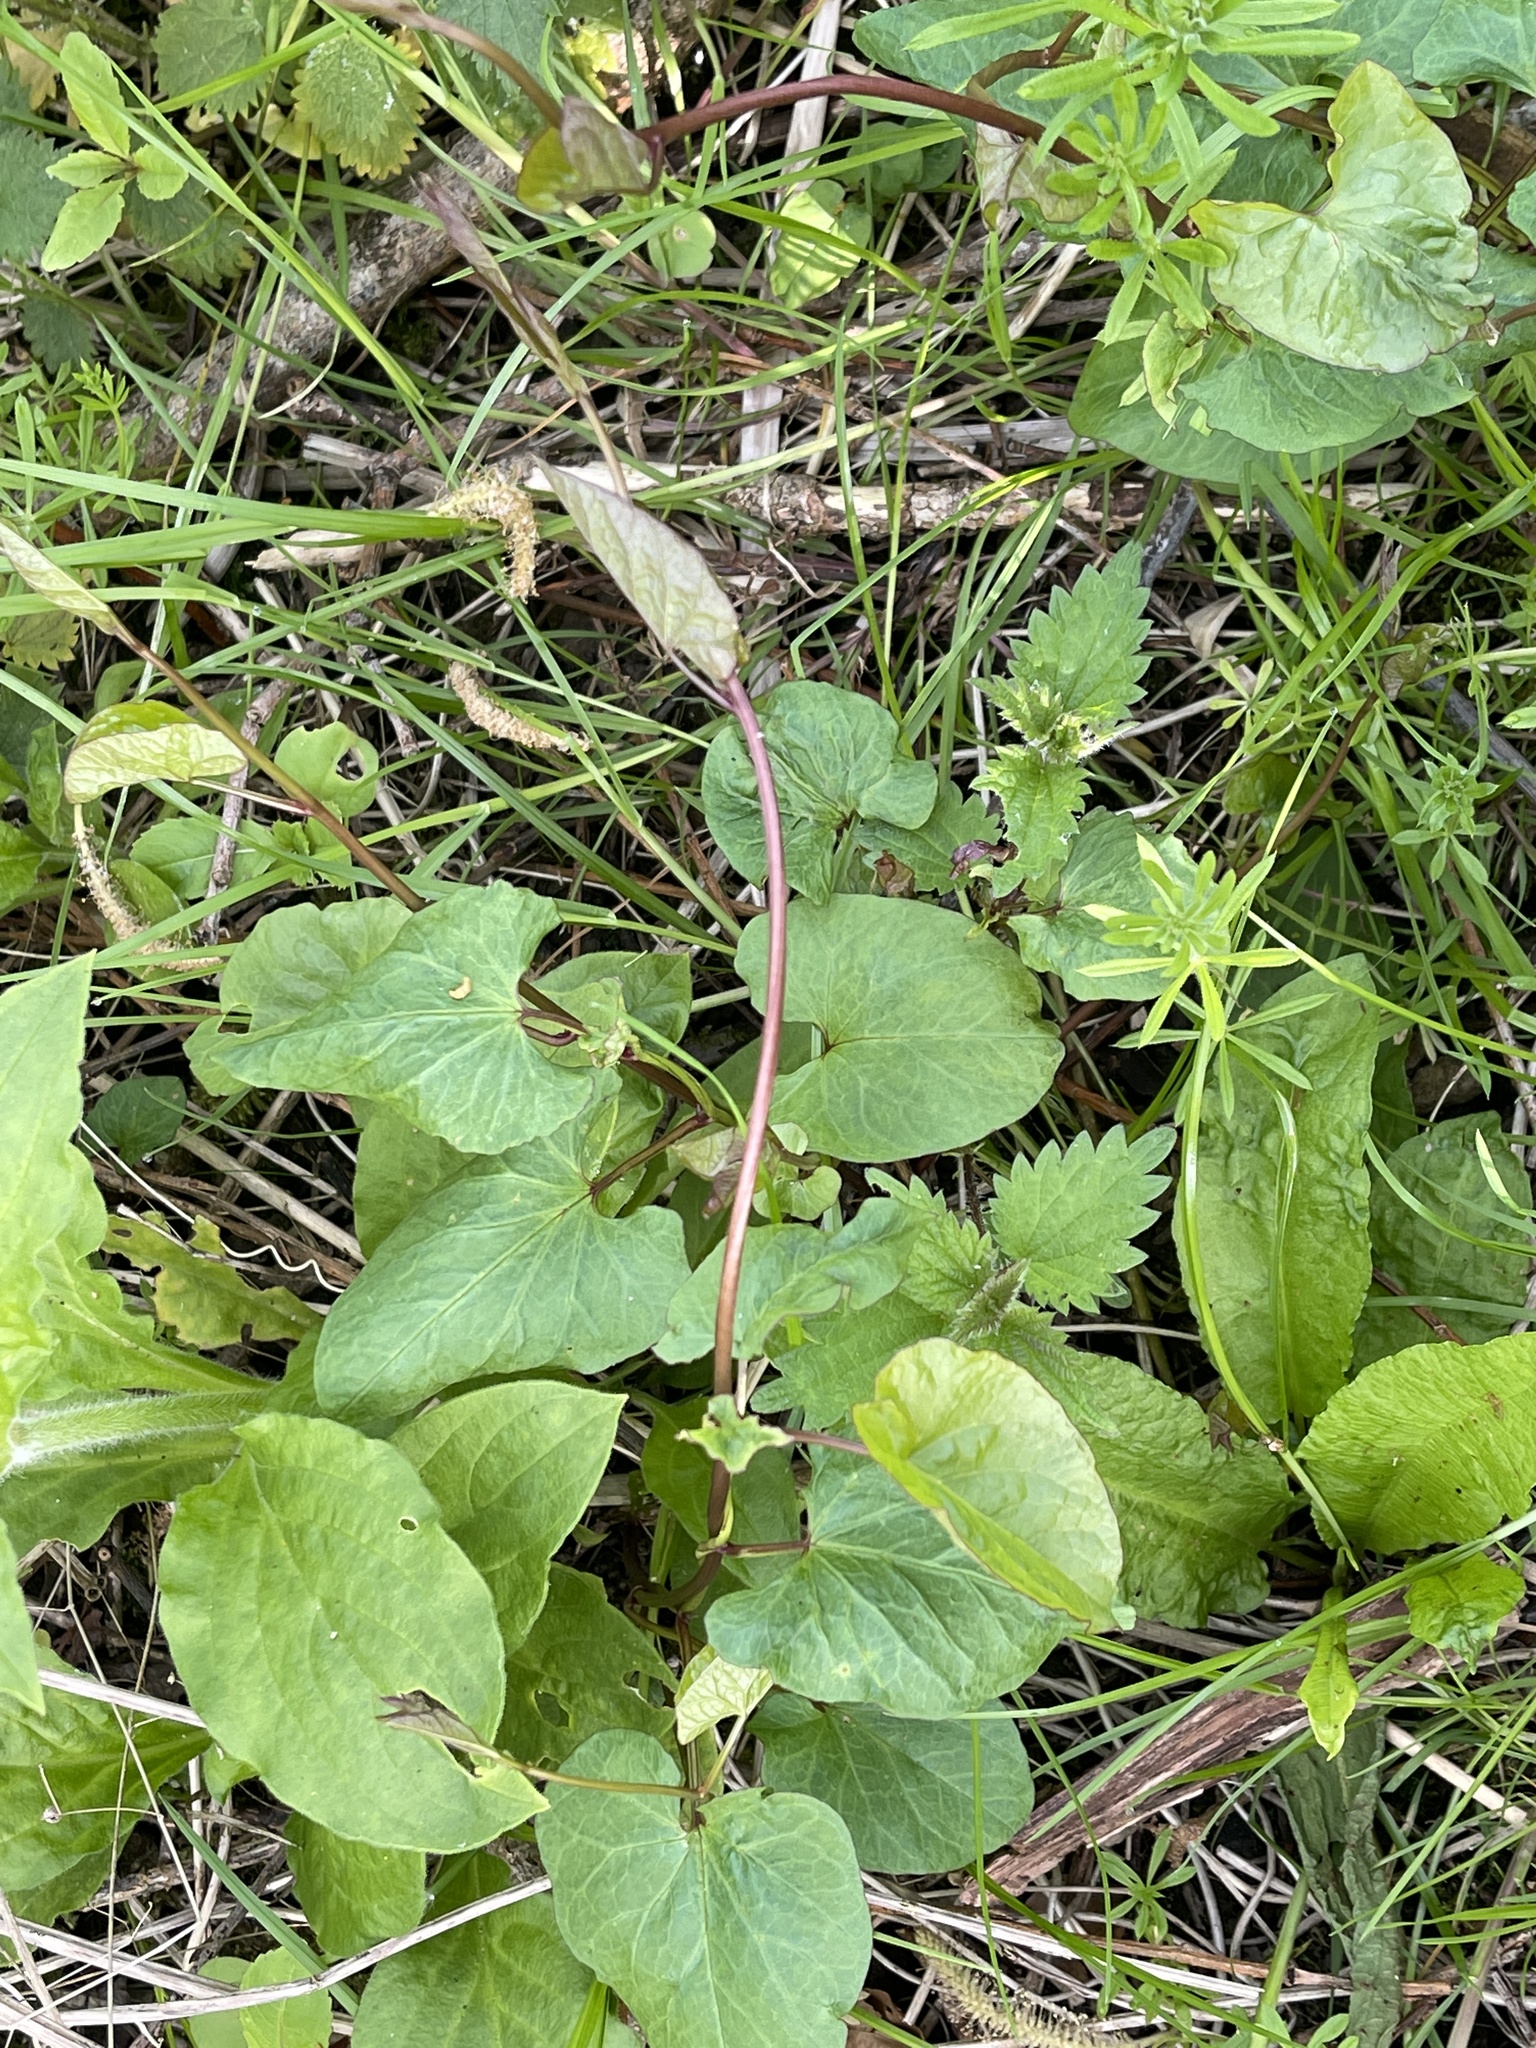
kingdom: Plantae
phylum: Tracheophyta
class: Magnoliopsida
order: Solanales
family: Convolvulaceae
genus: Calystegia
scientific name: Calystegia
